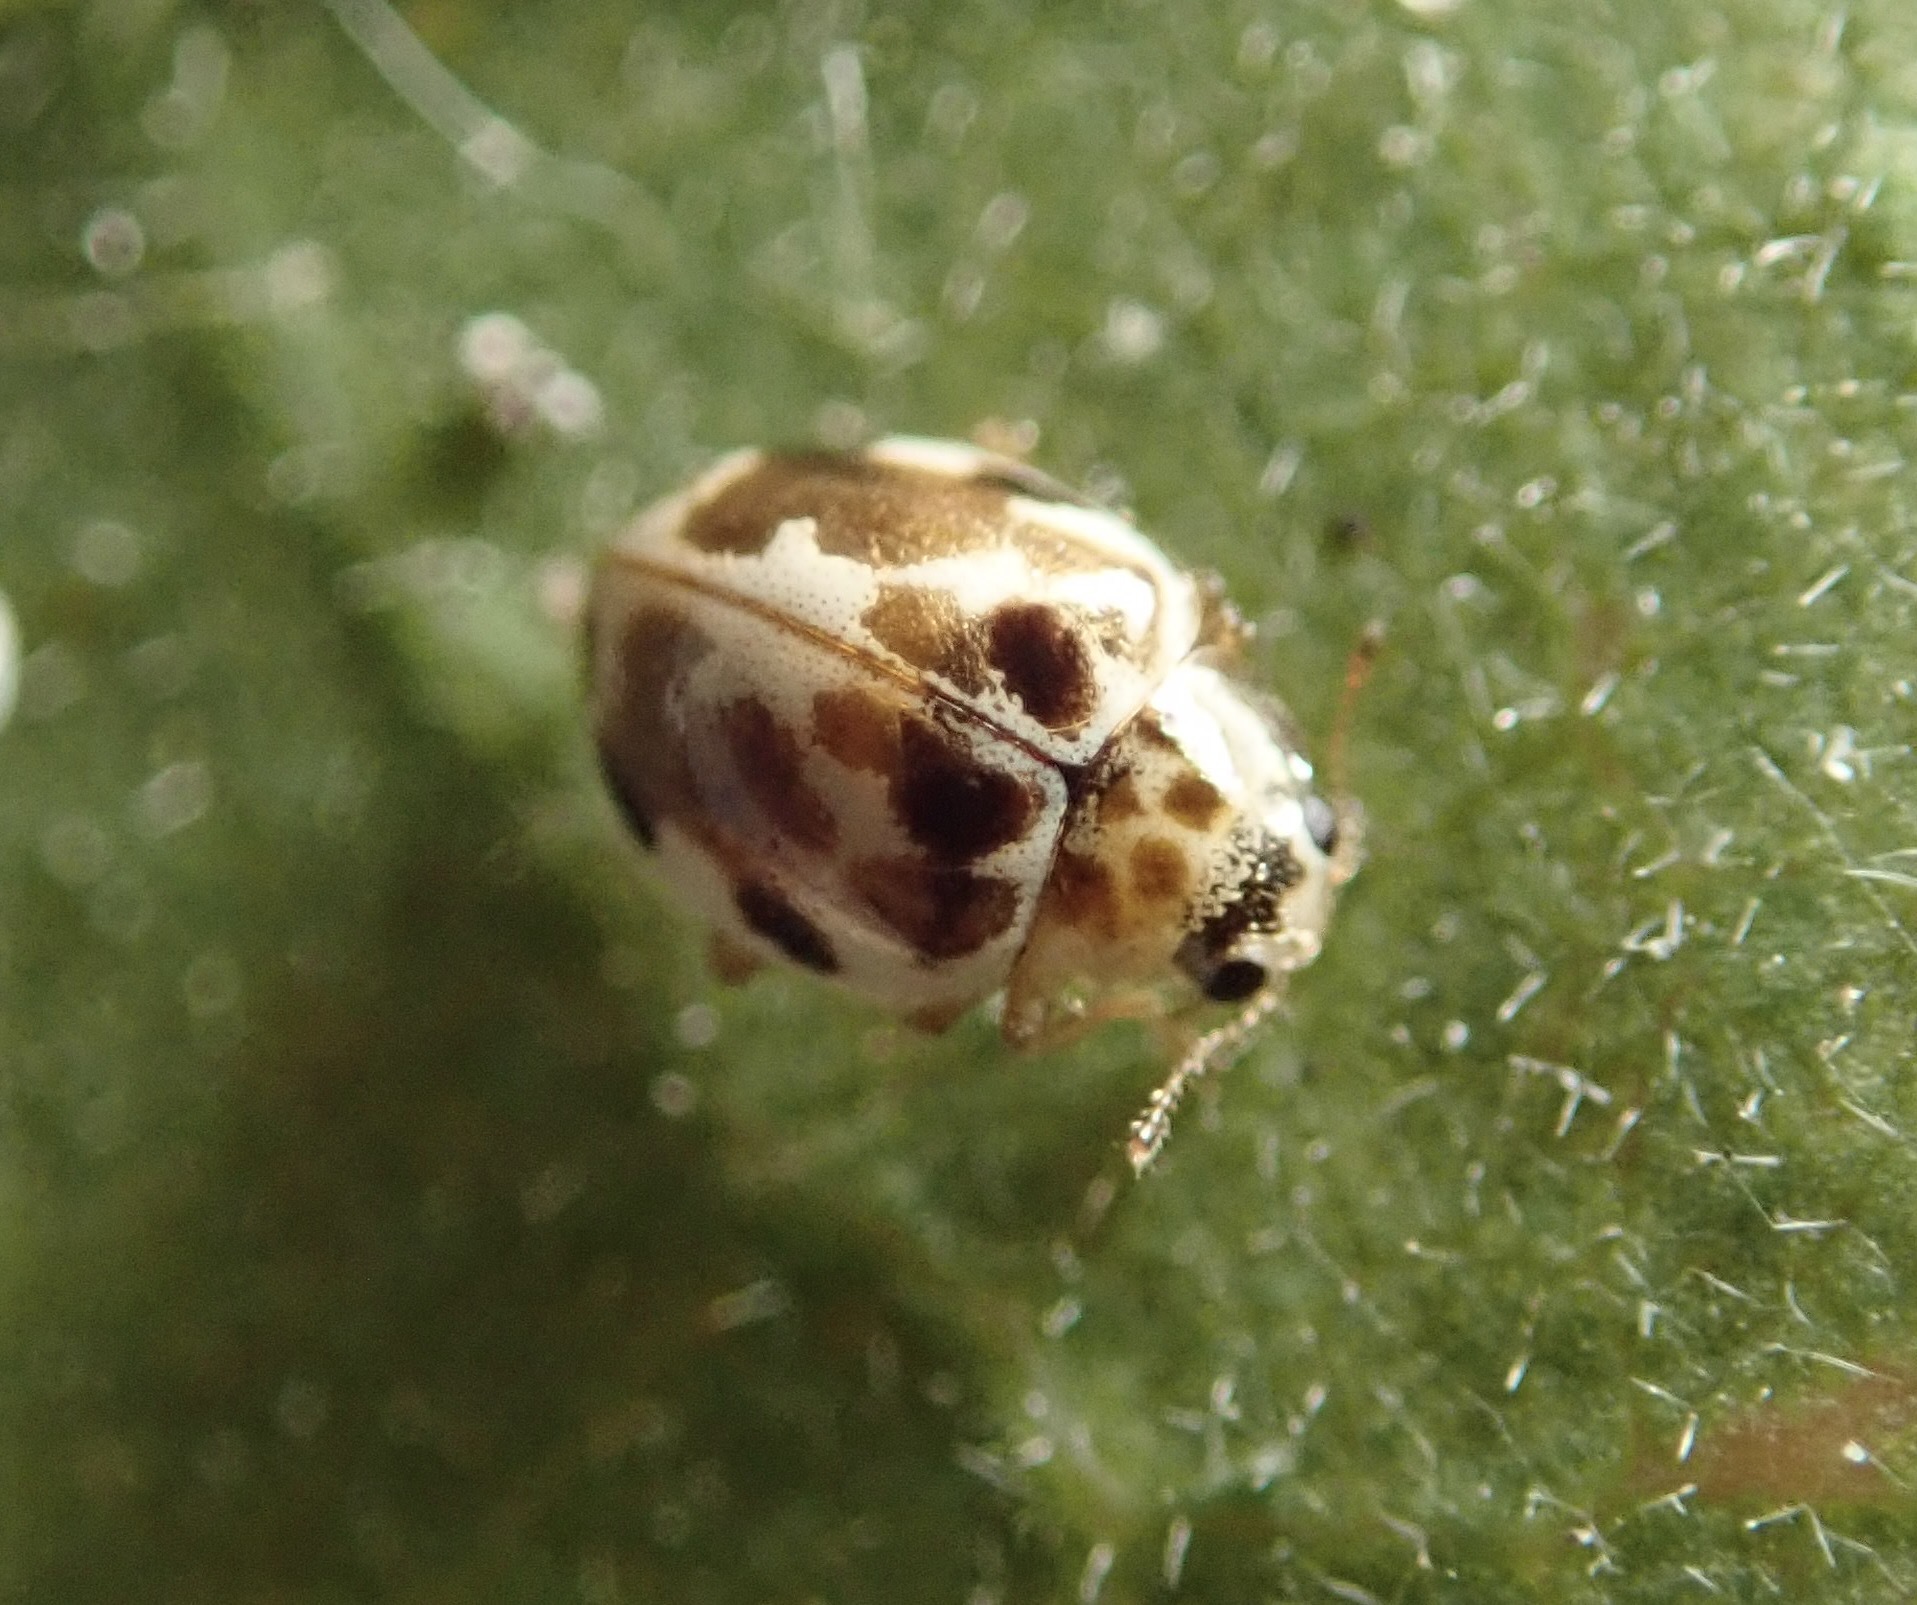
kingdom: Animalia
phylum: Arthropoda
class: Insecta
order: Coleoptera
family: Coccinellidae
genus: Psyllobora
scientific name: Psyllobora vigintimaculata
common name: Ladybird beetle
